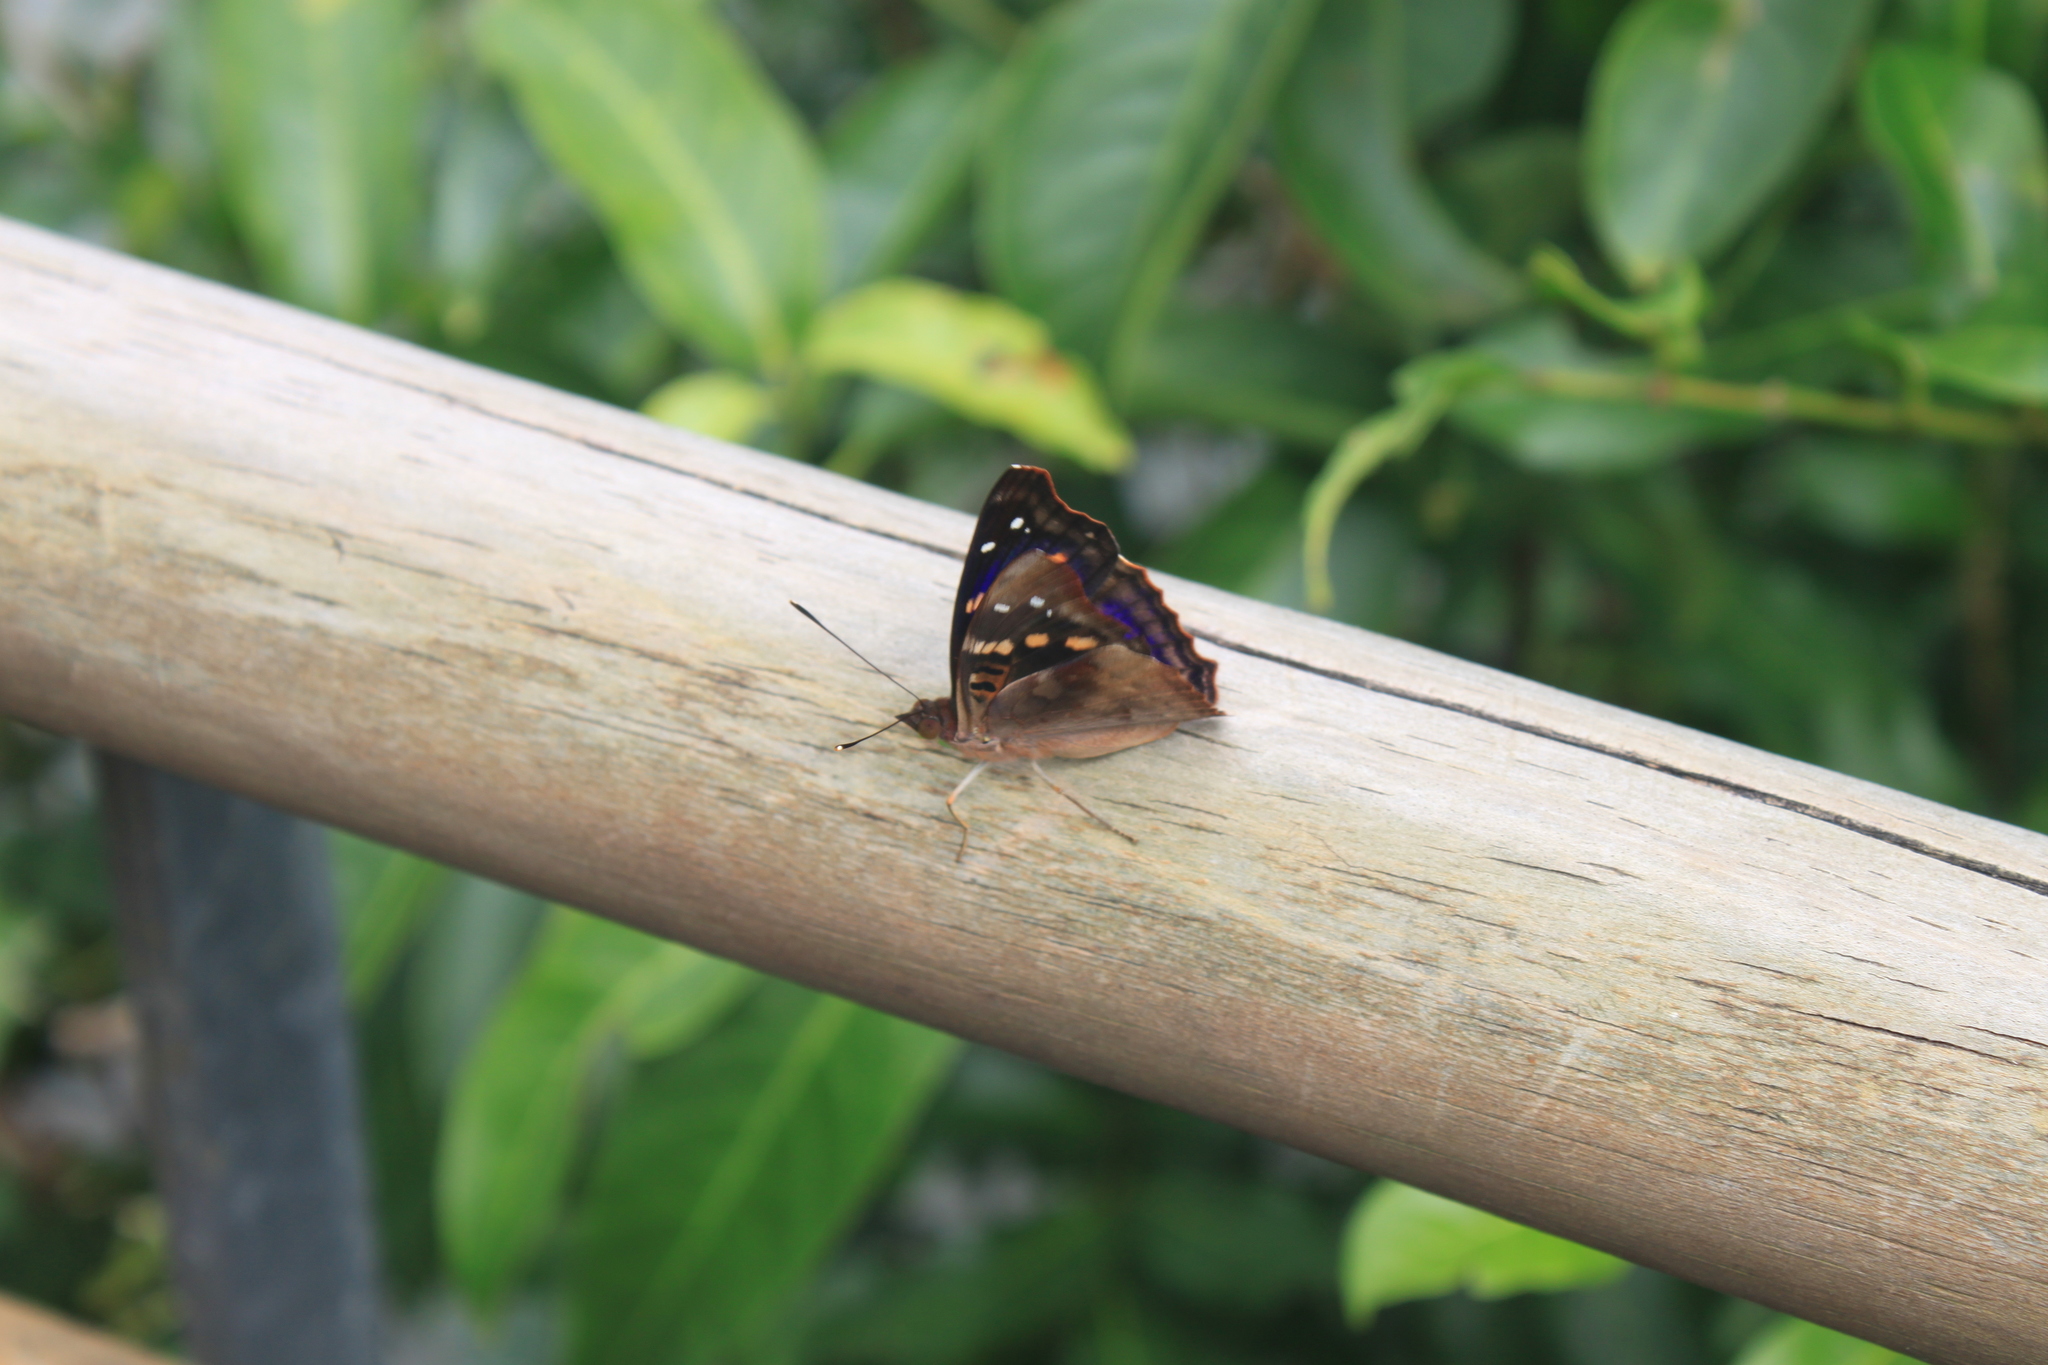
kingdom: Animalia
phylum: Arthropoda
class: Insecta
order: Lepidoptera
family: Nymphalidae
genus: Doxocopa
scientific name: Doxocopa agathina
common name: Agathina emperor
